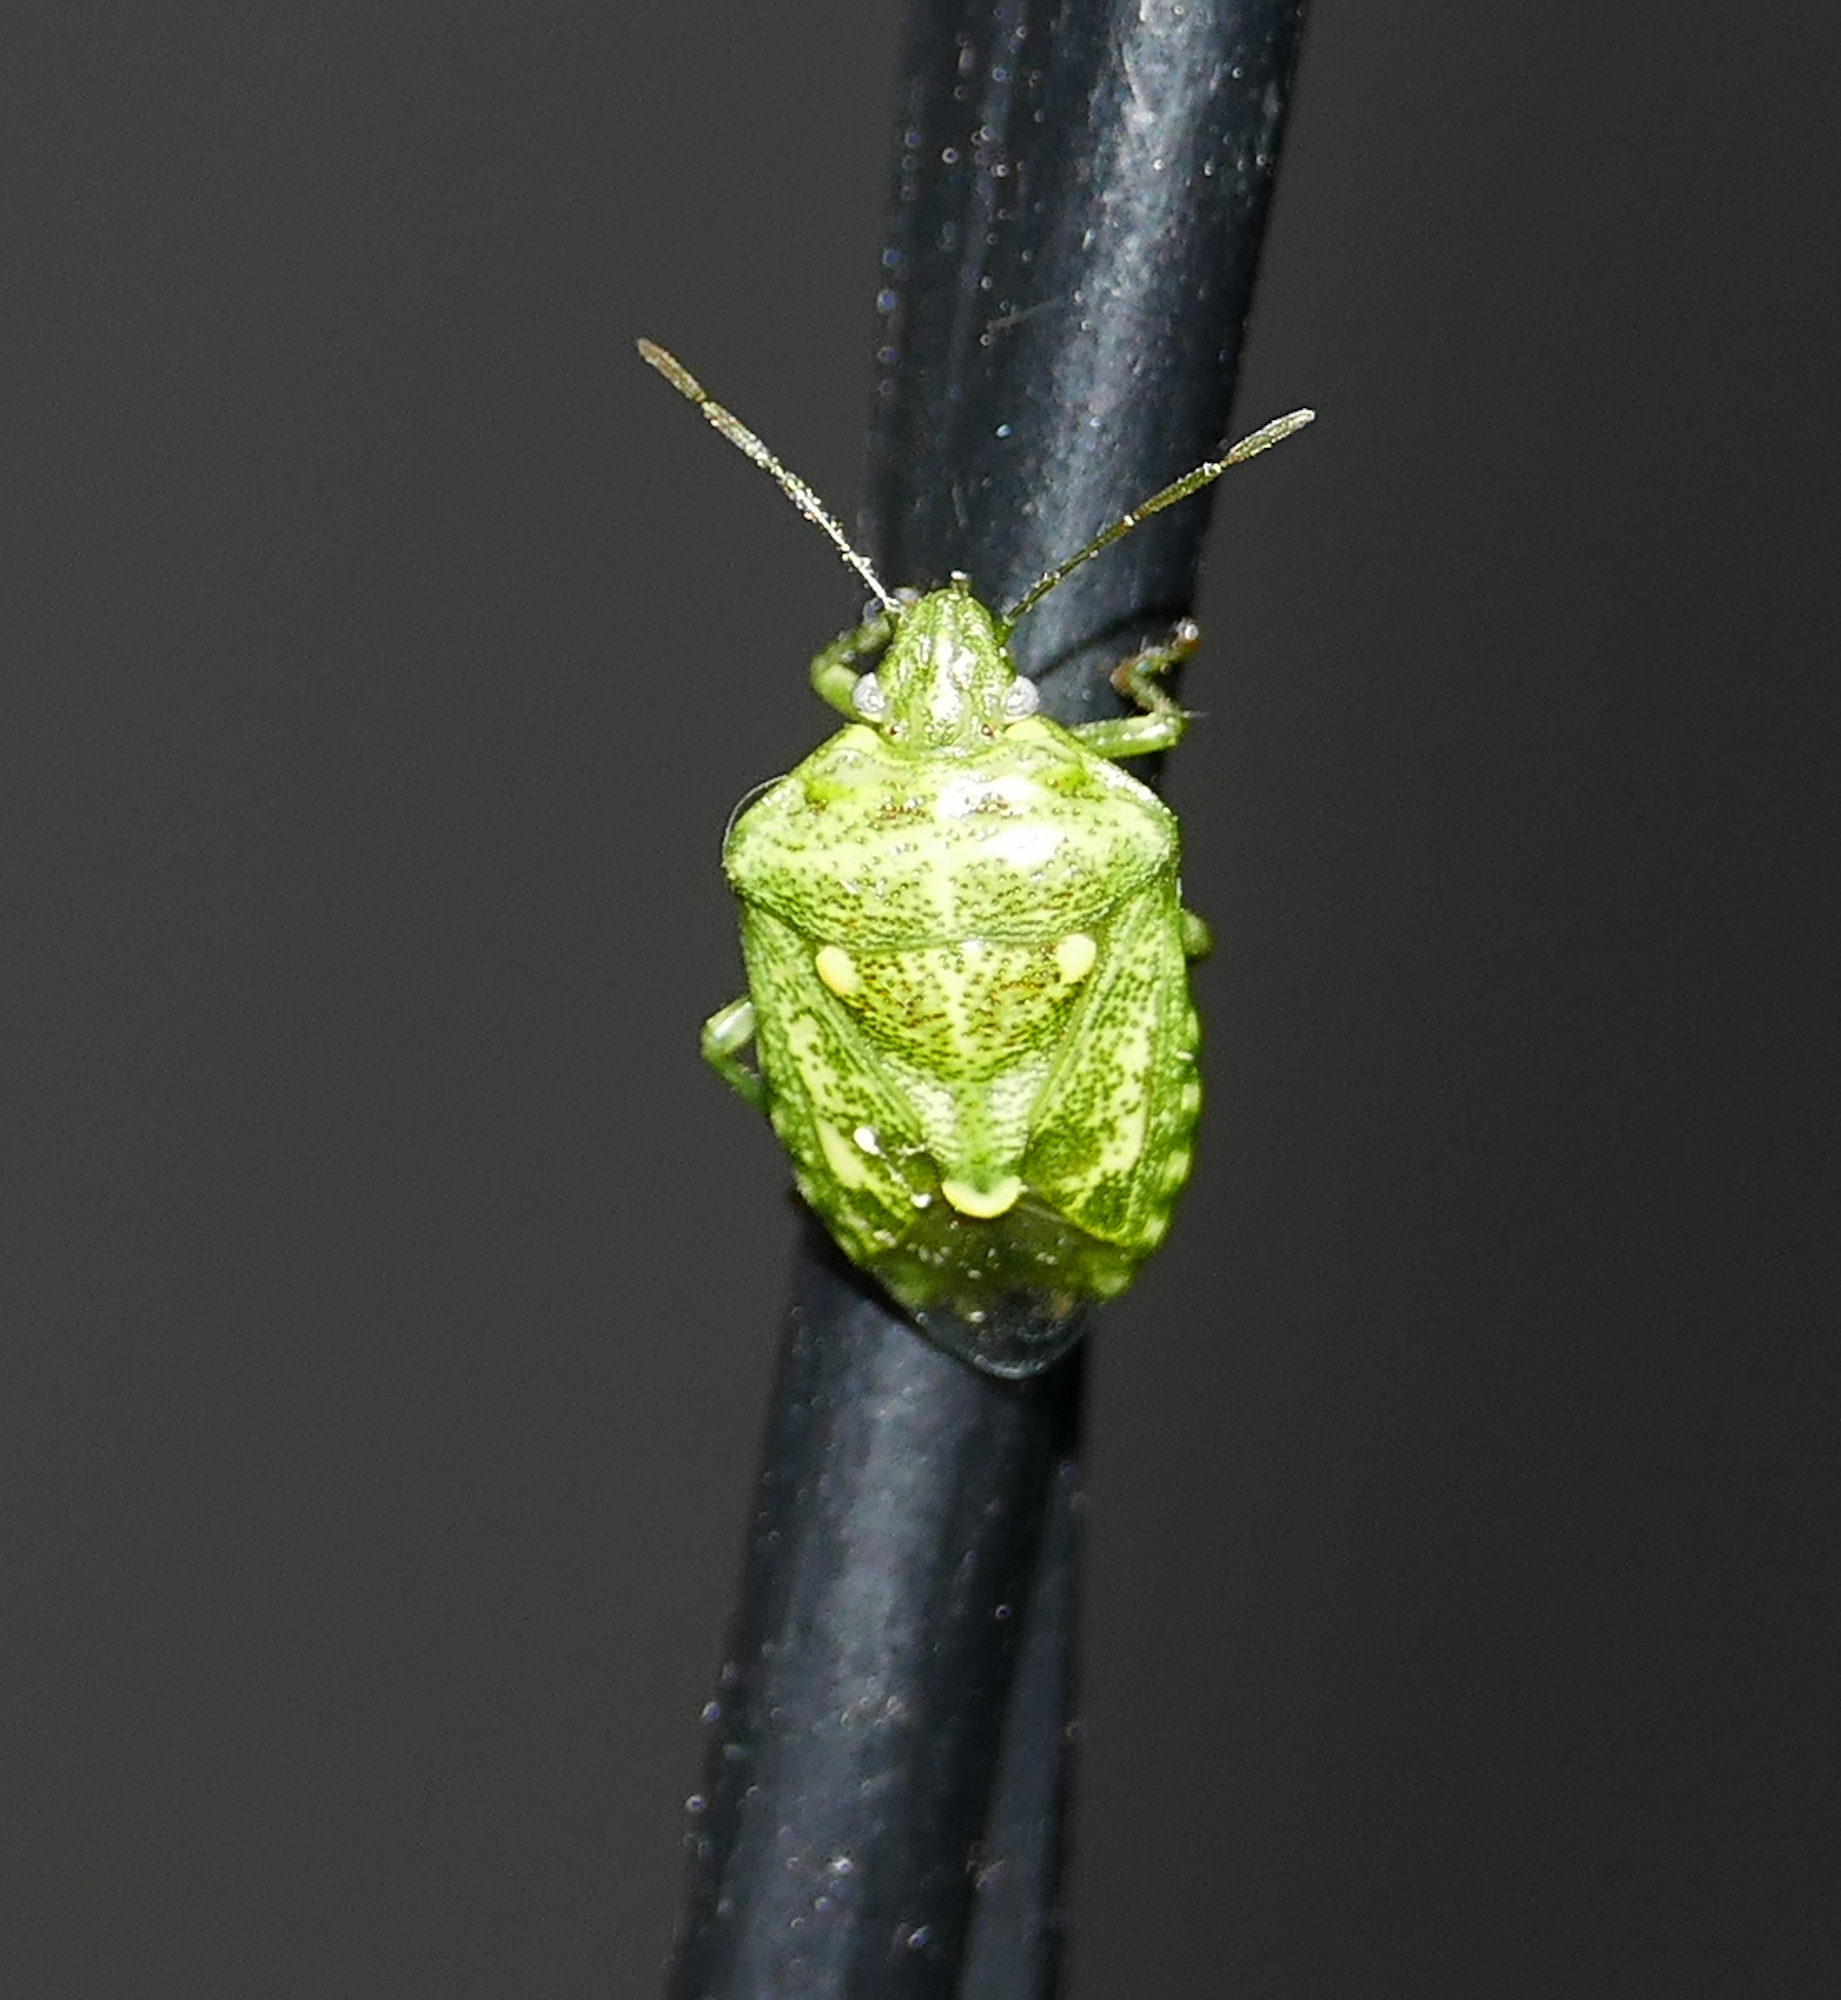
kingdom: Animalia
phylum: Arthropoda
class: Insecta
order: Hemiptera
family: Pentatomidae
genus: Banasa
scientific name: Banasa euchlora
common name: Cedar berry bug
